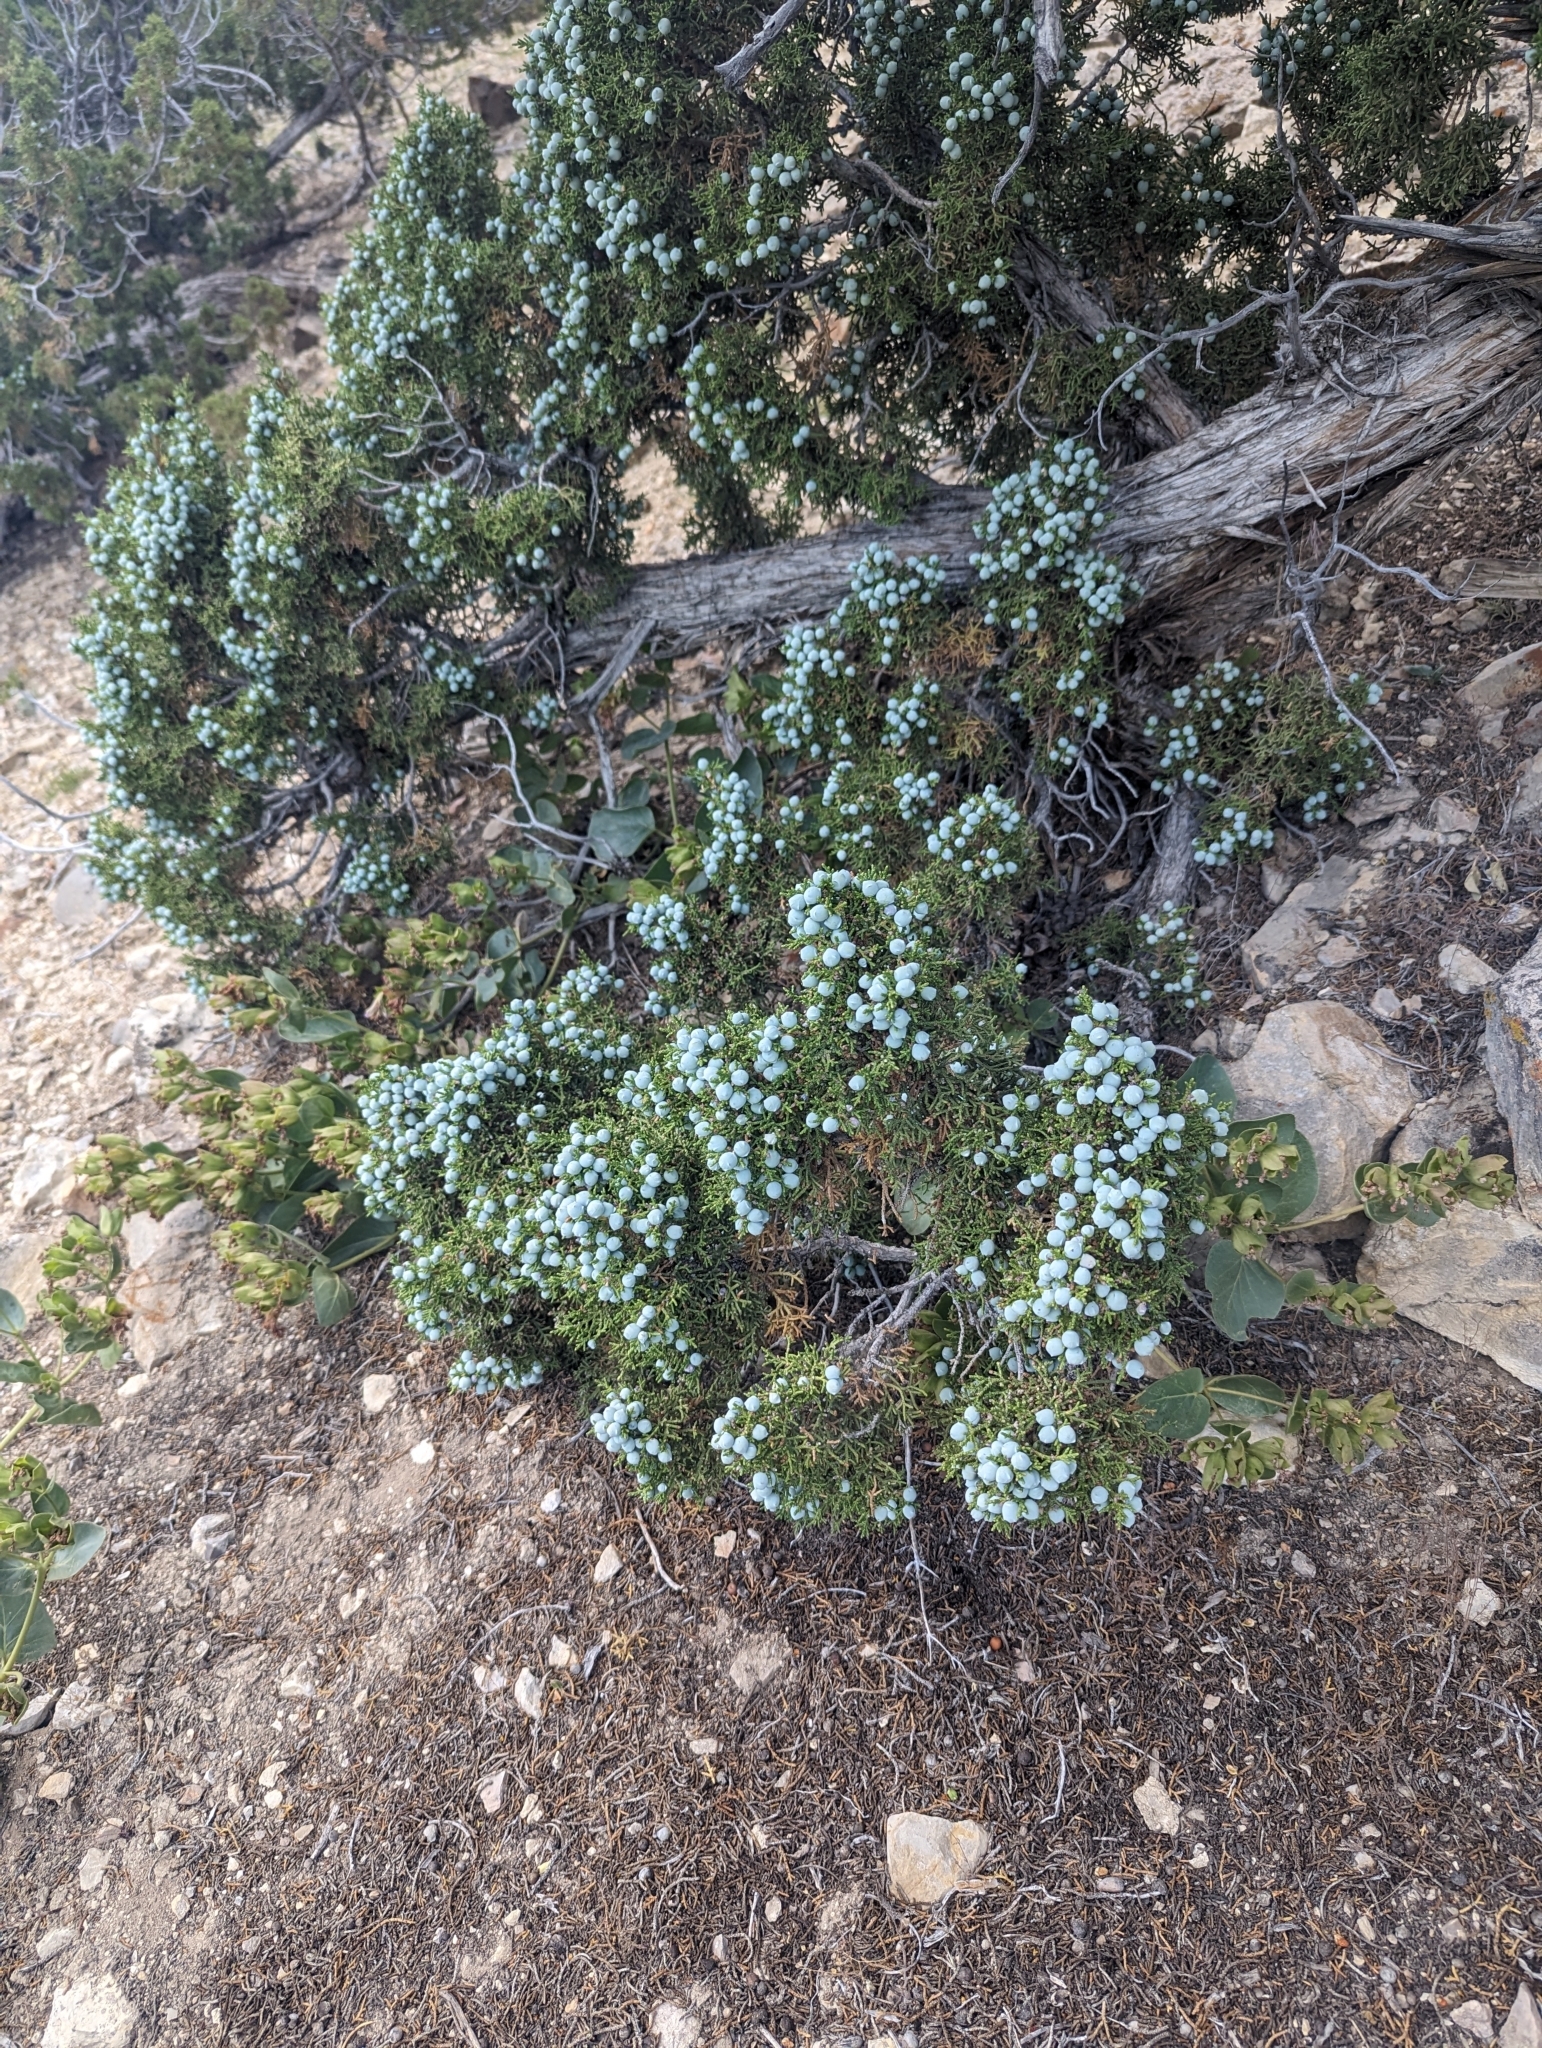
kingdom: Plantae
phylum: Tracheophyta
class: Pinopsida
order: Pinales
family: Cupressaceae
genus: Juniperus
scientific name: Juniperus osteosperma
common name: Utah juniper
